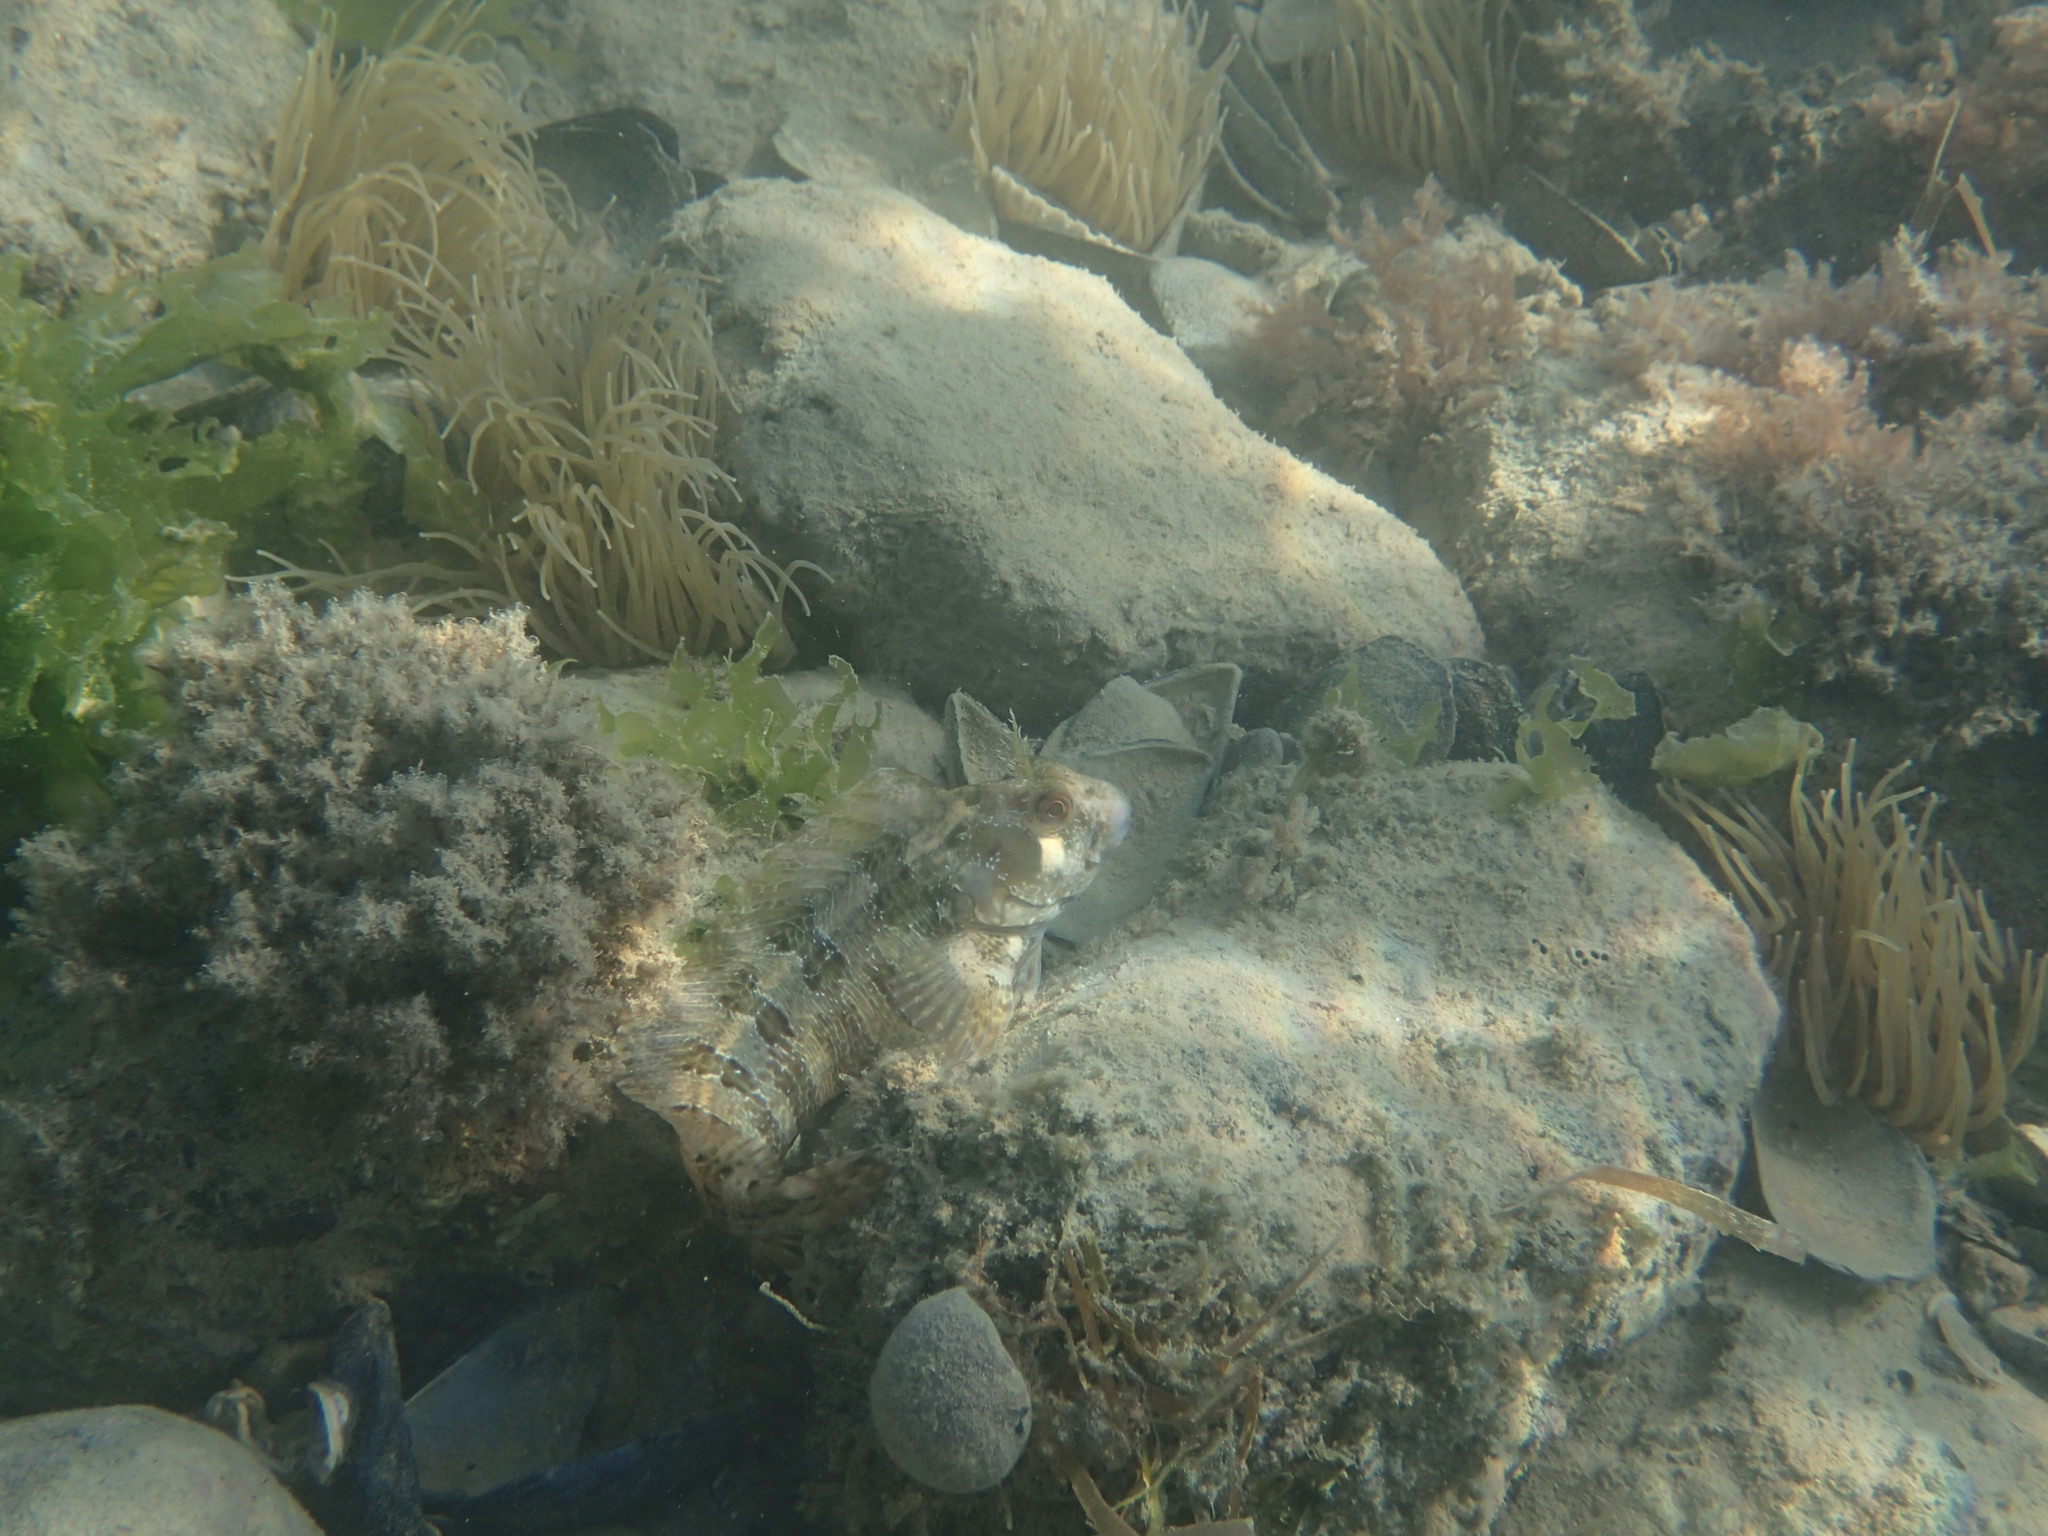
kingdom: Animalia
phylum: Chordata
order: Perciformes
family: Blenniidae
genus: Parablennius
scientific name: Parablennius gattorugine
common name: Tompot blenny
